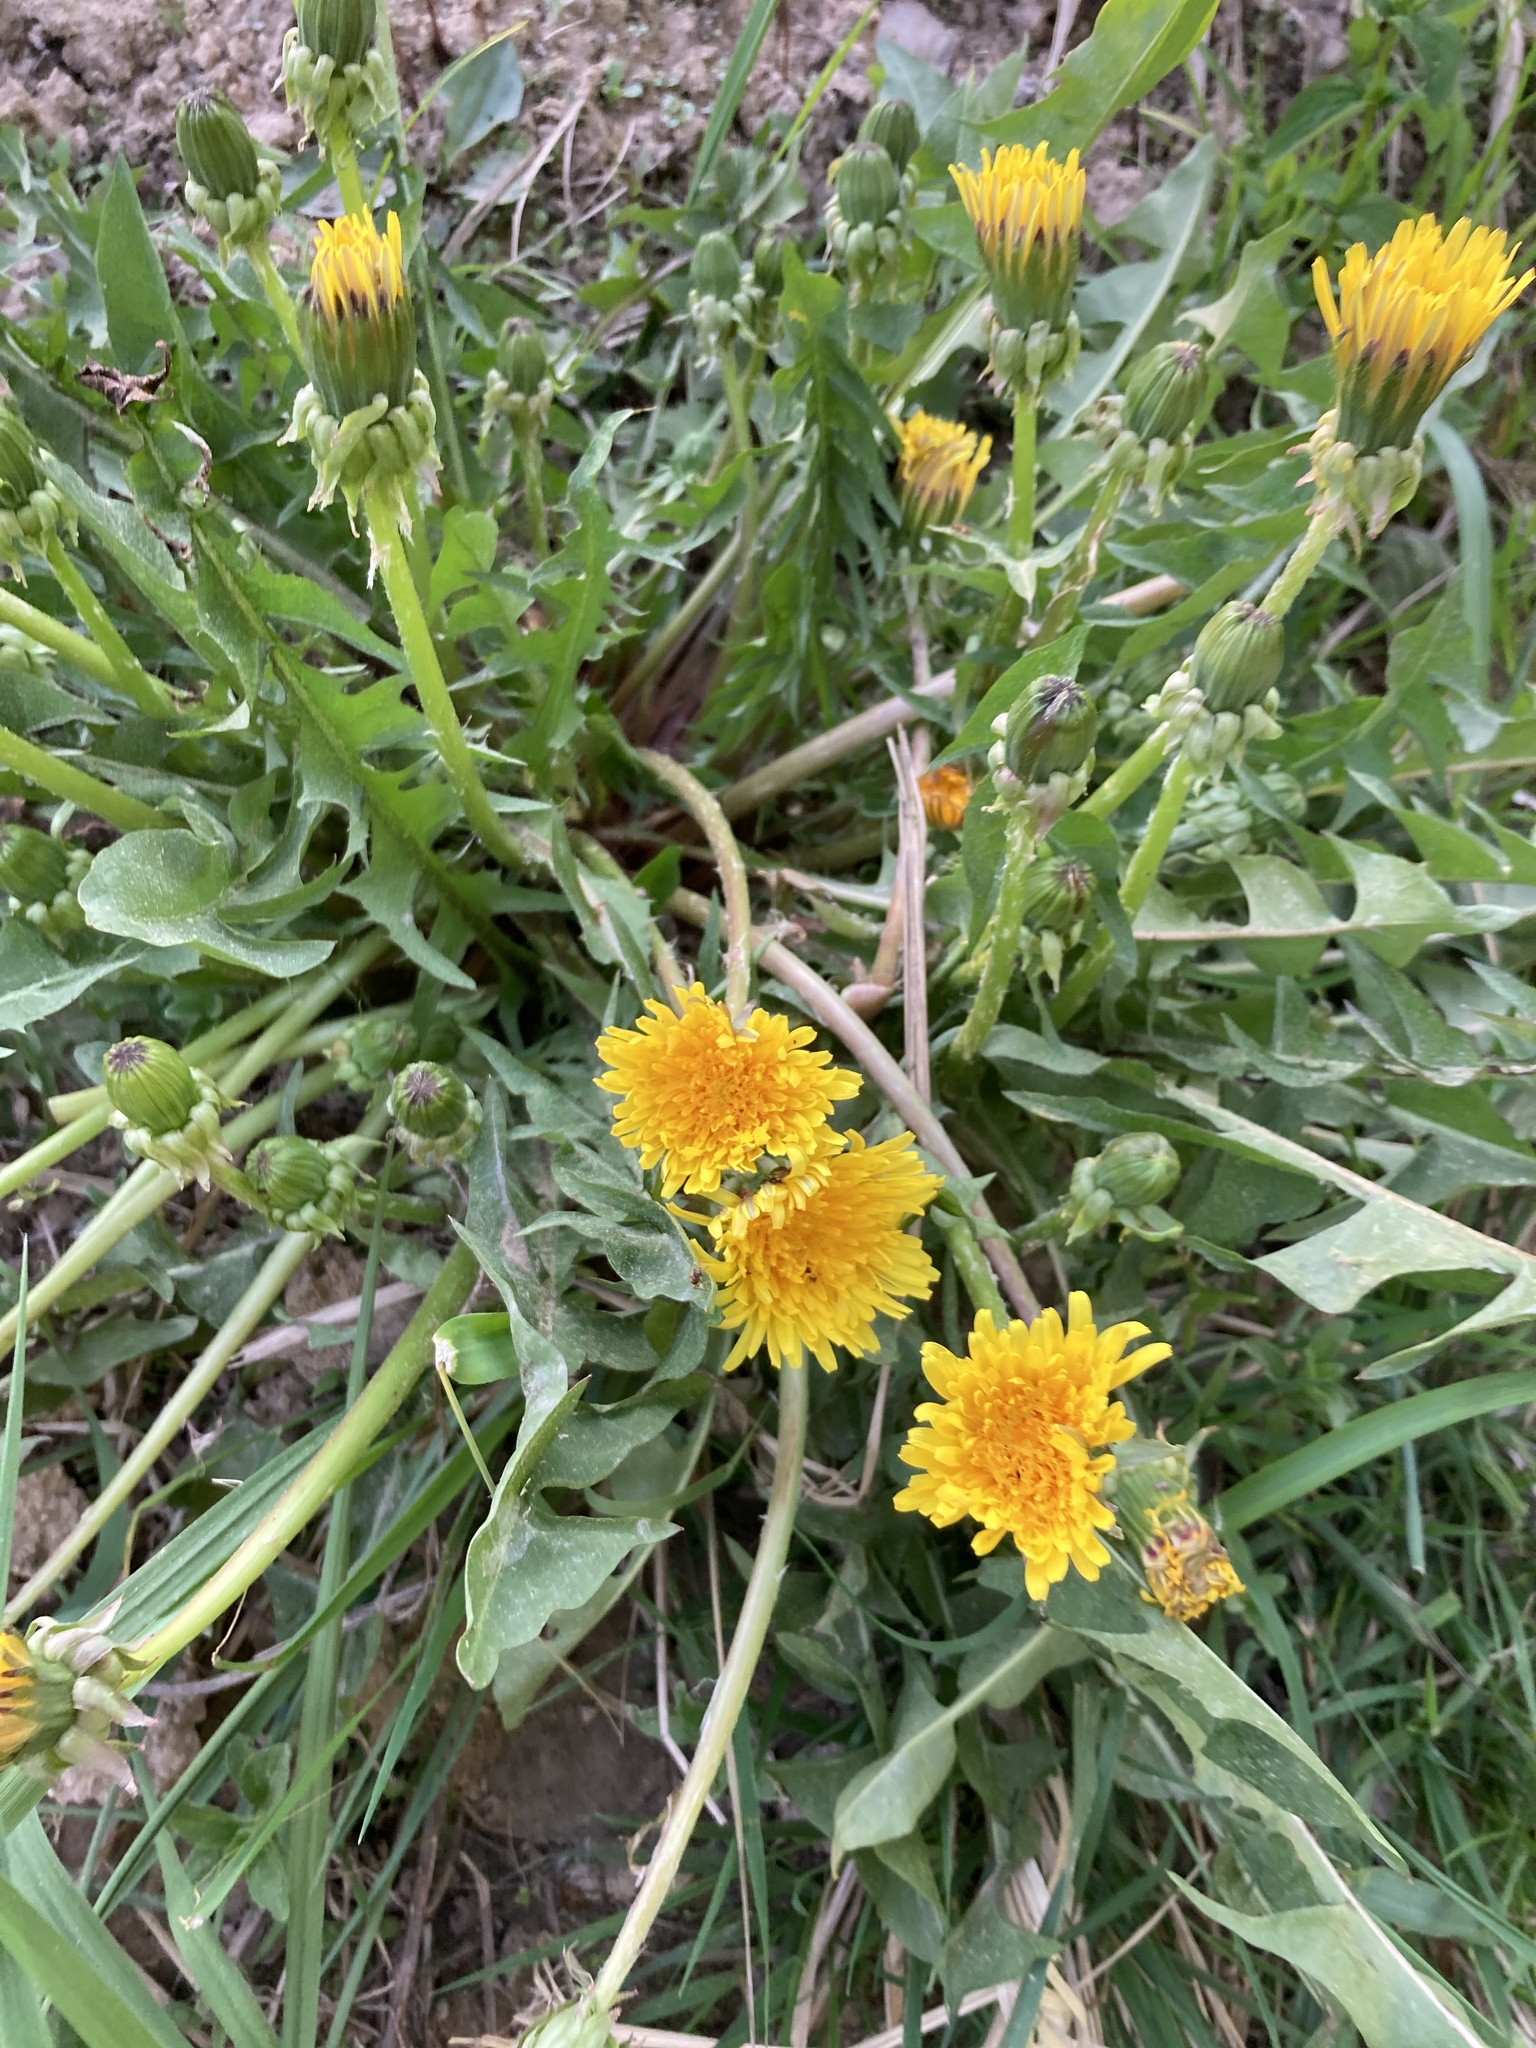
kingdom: Plantae
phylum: Tracheophyta
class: Magnoliopsida
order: Asterales
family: Asteraceae
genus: Taraxacum
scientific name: Taraxacum officinale
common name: Common dandelion
